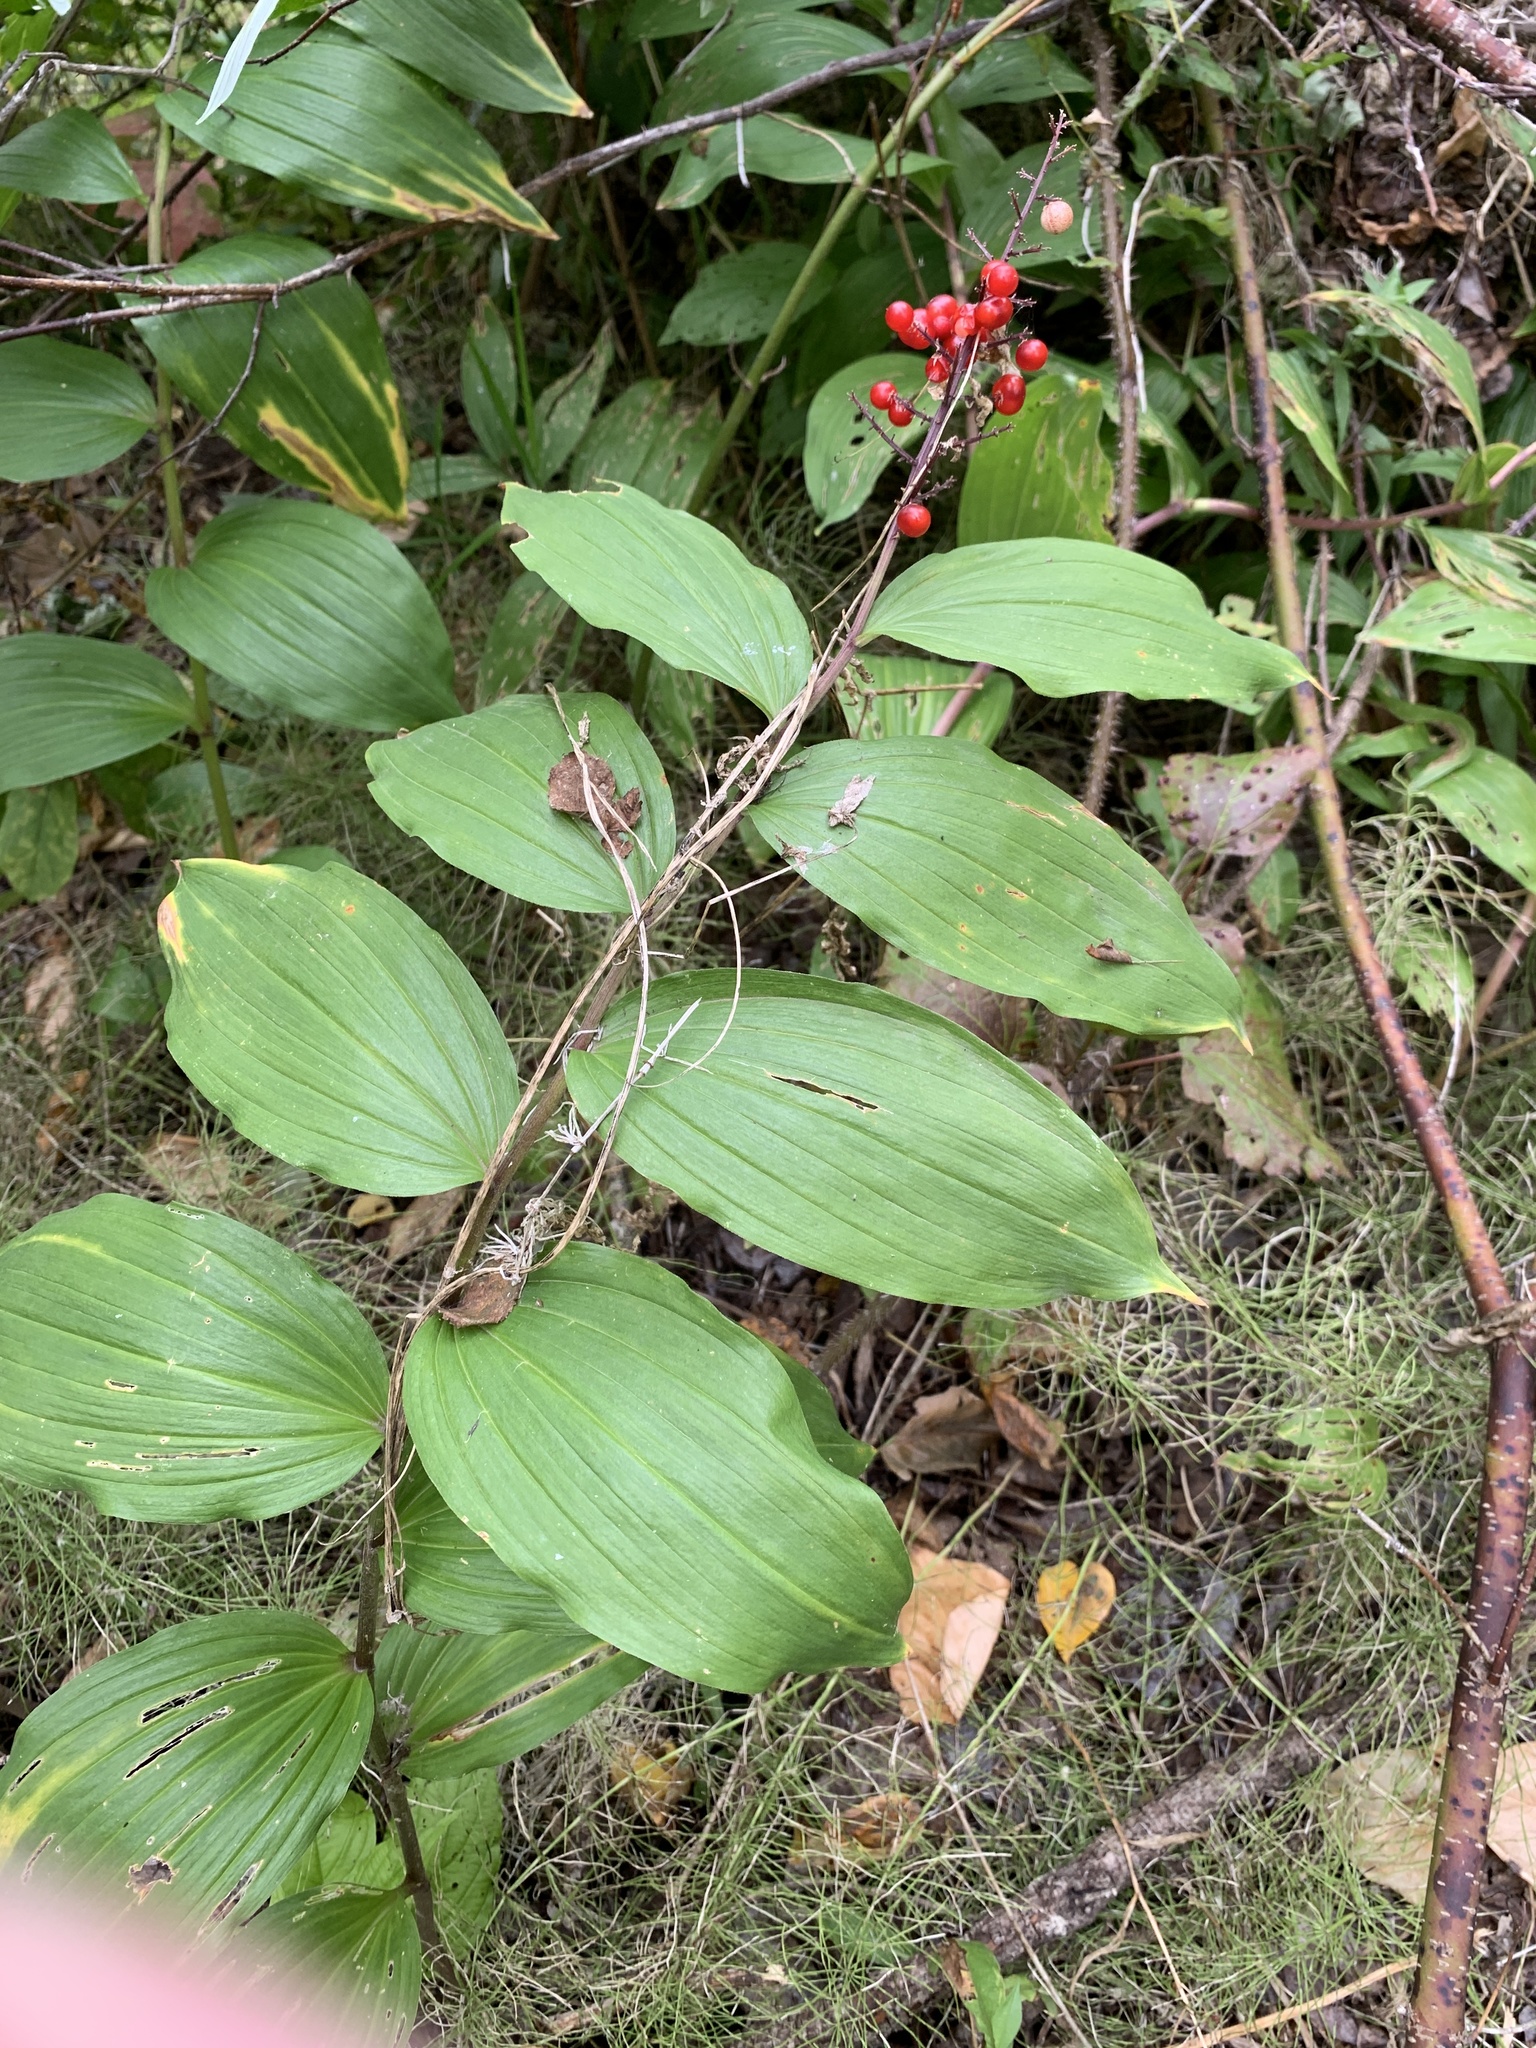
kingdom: Plantae
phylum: Tracheophyta
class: Liliopsida
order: Asparagales
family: Asparagaceae
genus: Maianthemum
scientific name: Maianthemum racemosum
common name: False spikenard
